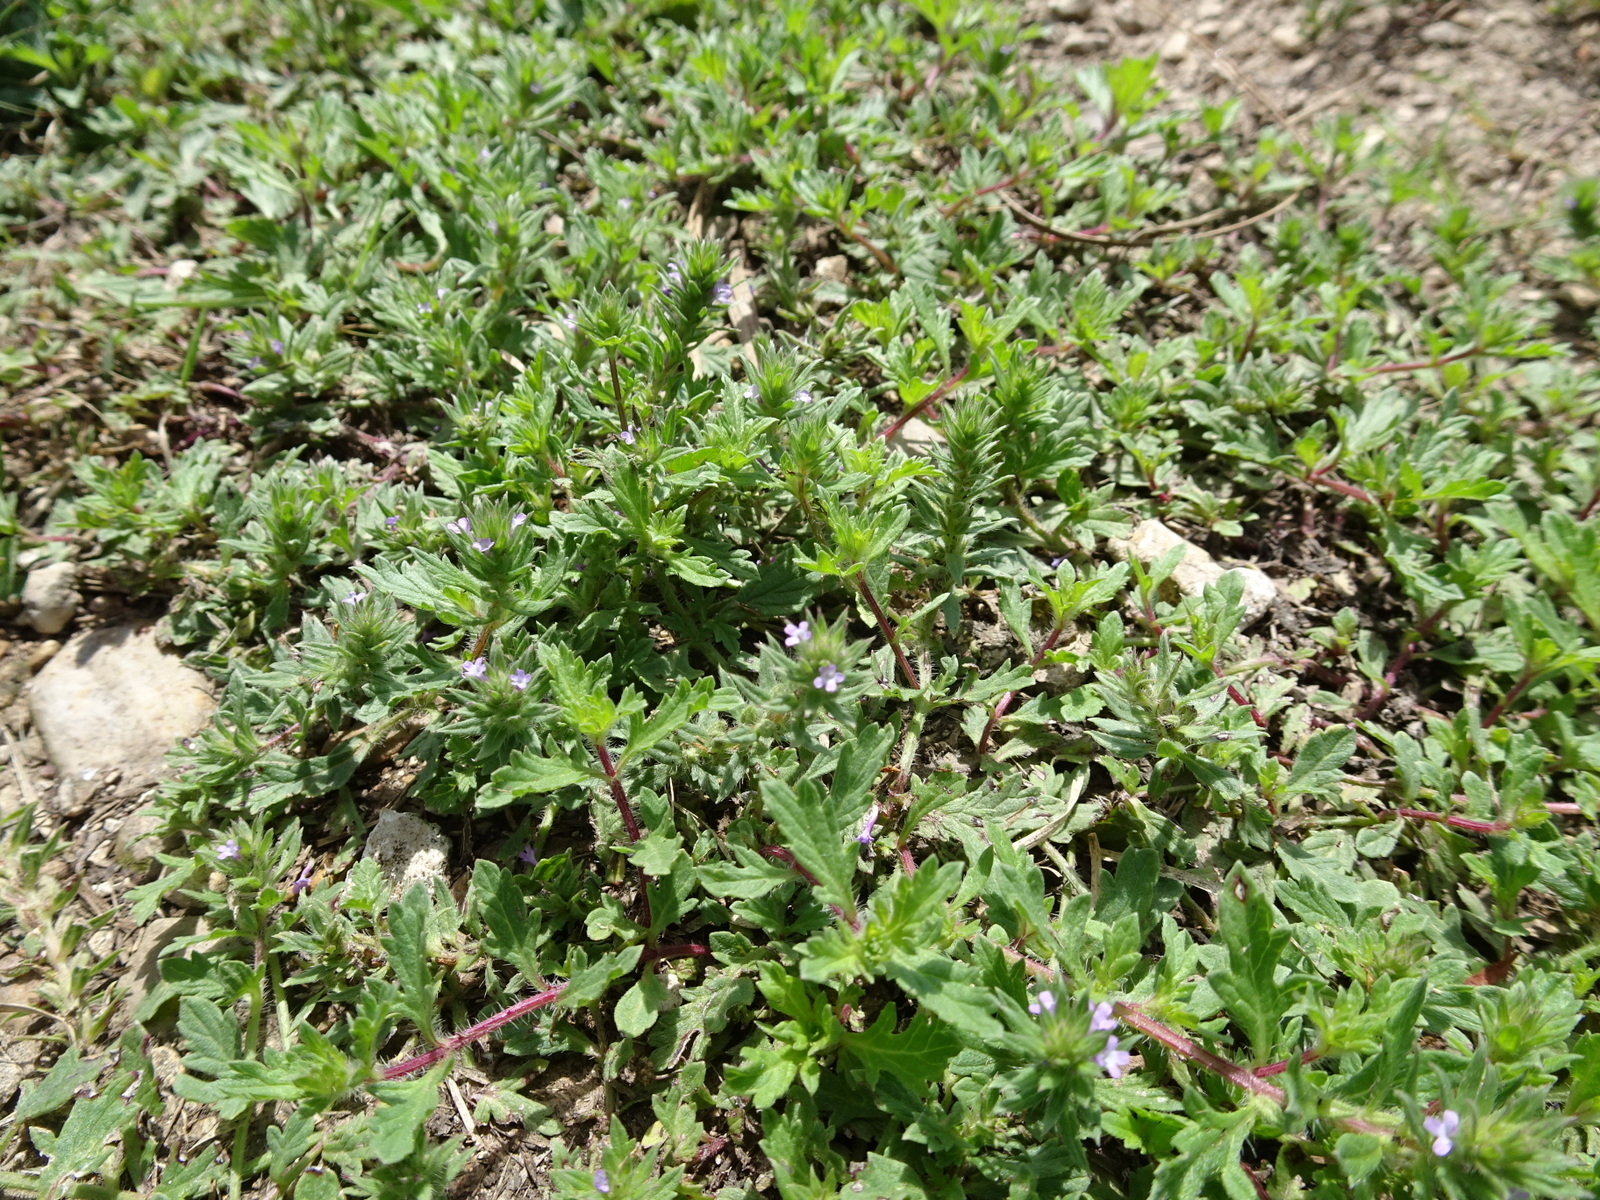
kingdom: Plantae
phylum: Tracheophyta
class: Magnoliopsida
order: Lamiales
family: Verbenaceae
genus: Verbena
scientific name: Verbena bracteata
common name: Bracted vervain
